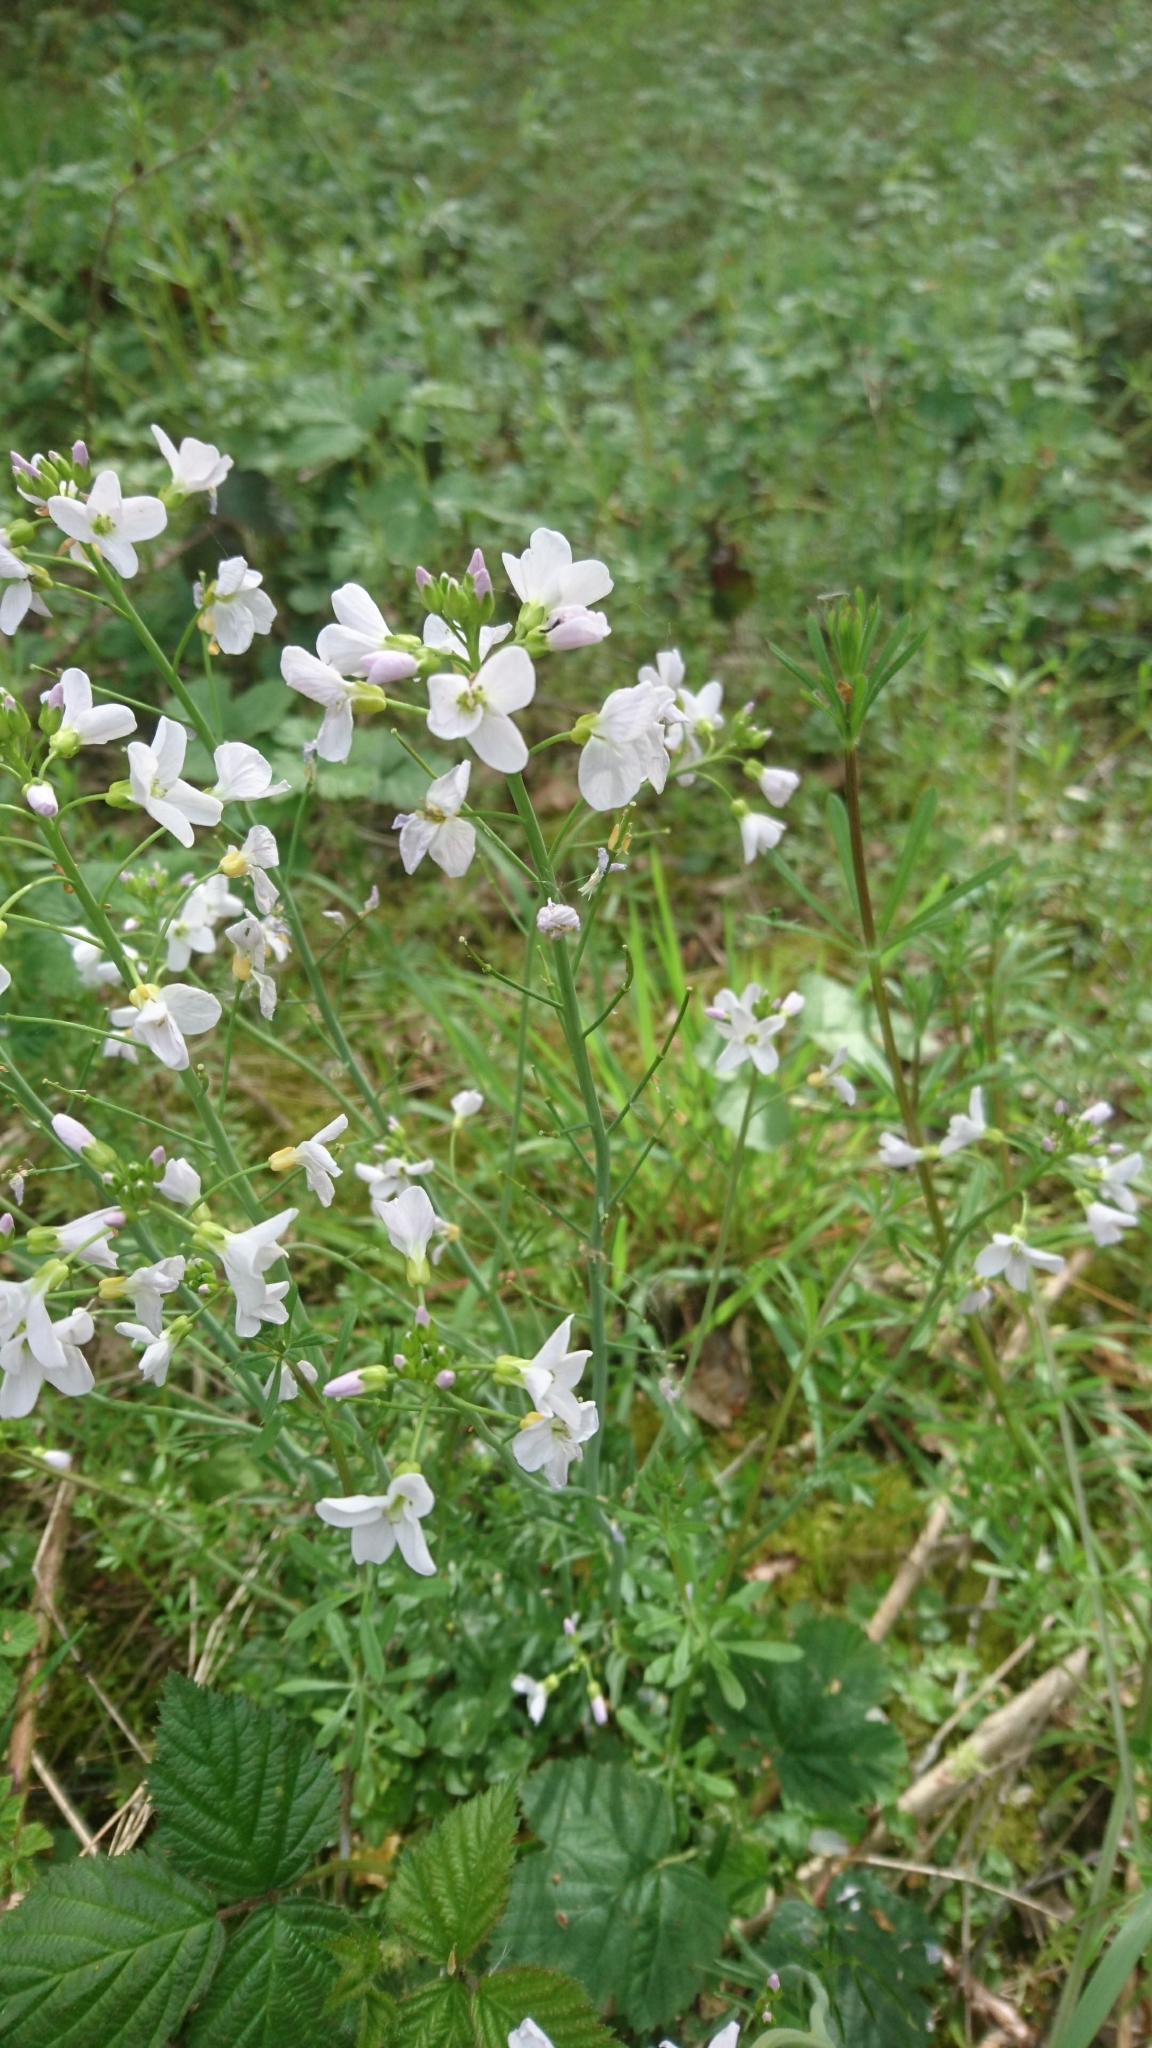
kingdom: Plantae
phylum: Tracheophyta
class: Magnoliopsida
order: Brassicales
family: Brassicaceae
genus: Cardamine
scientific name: Cardamine pratensis
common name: Cuckoo flower
